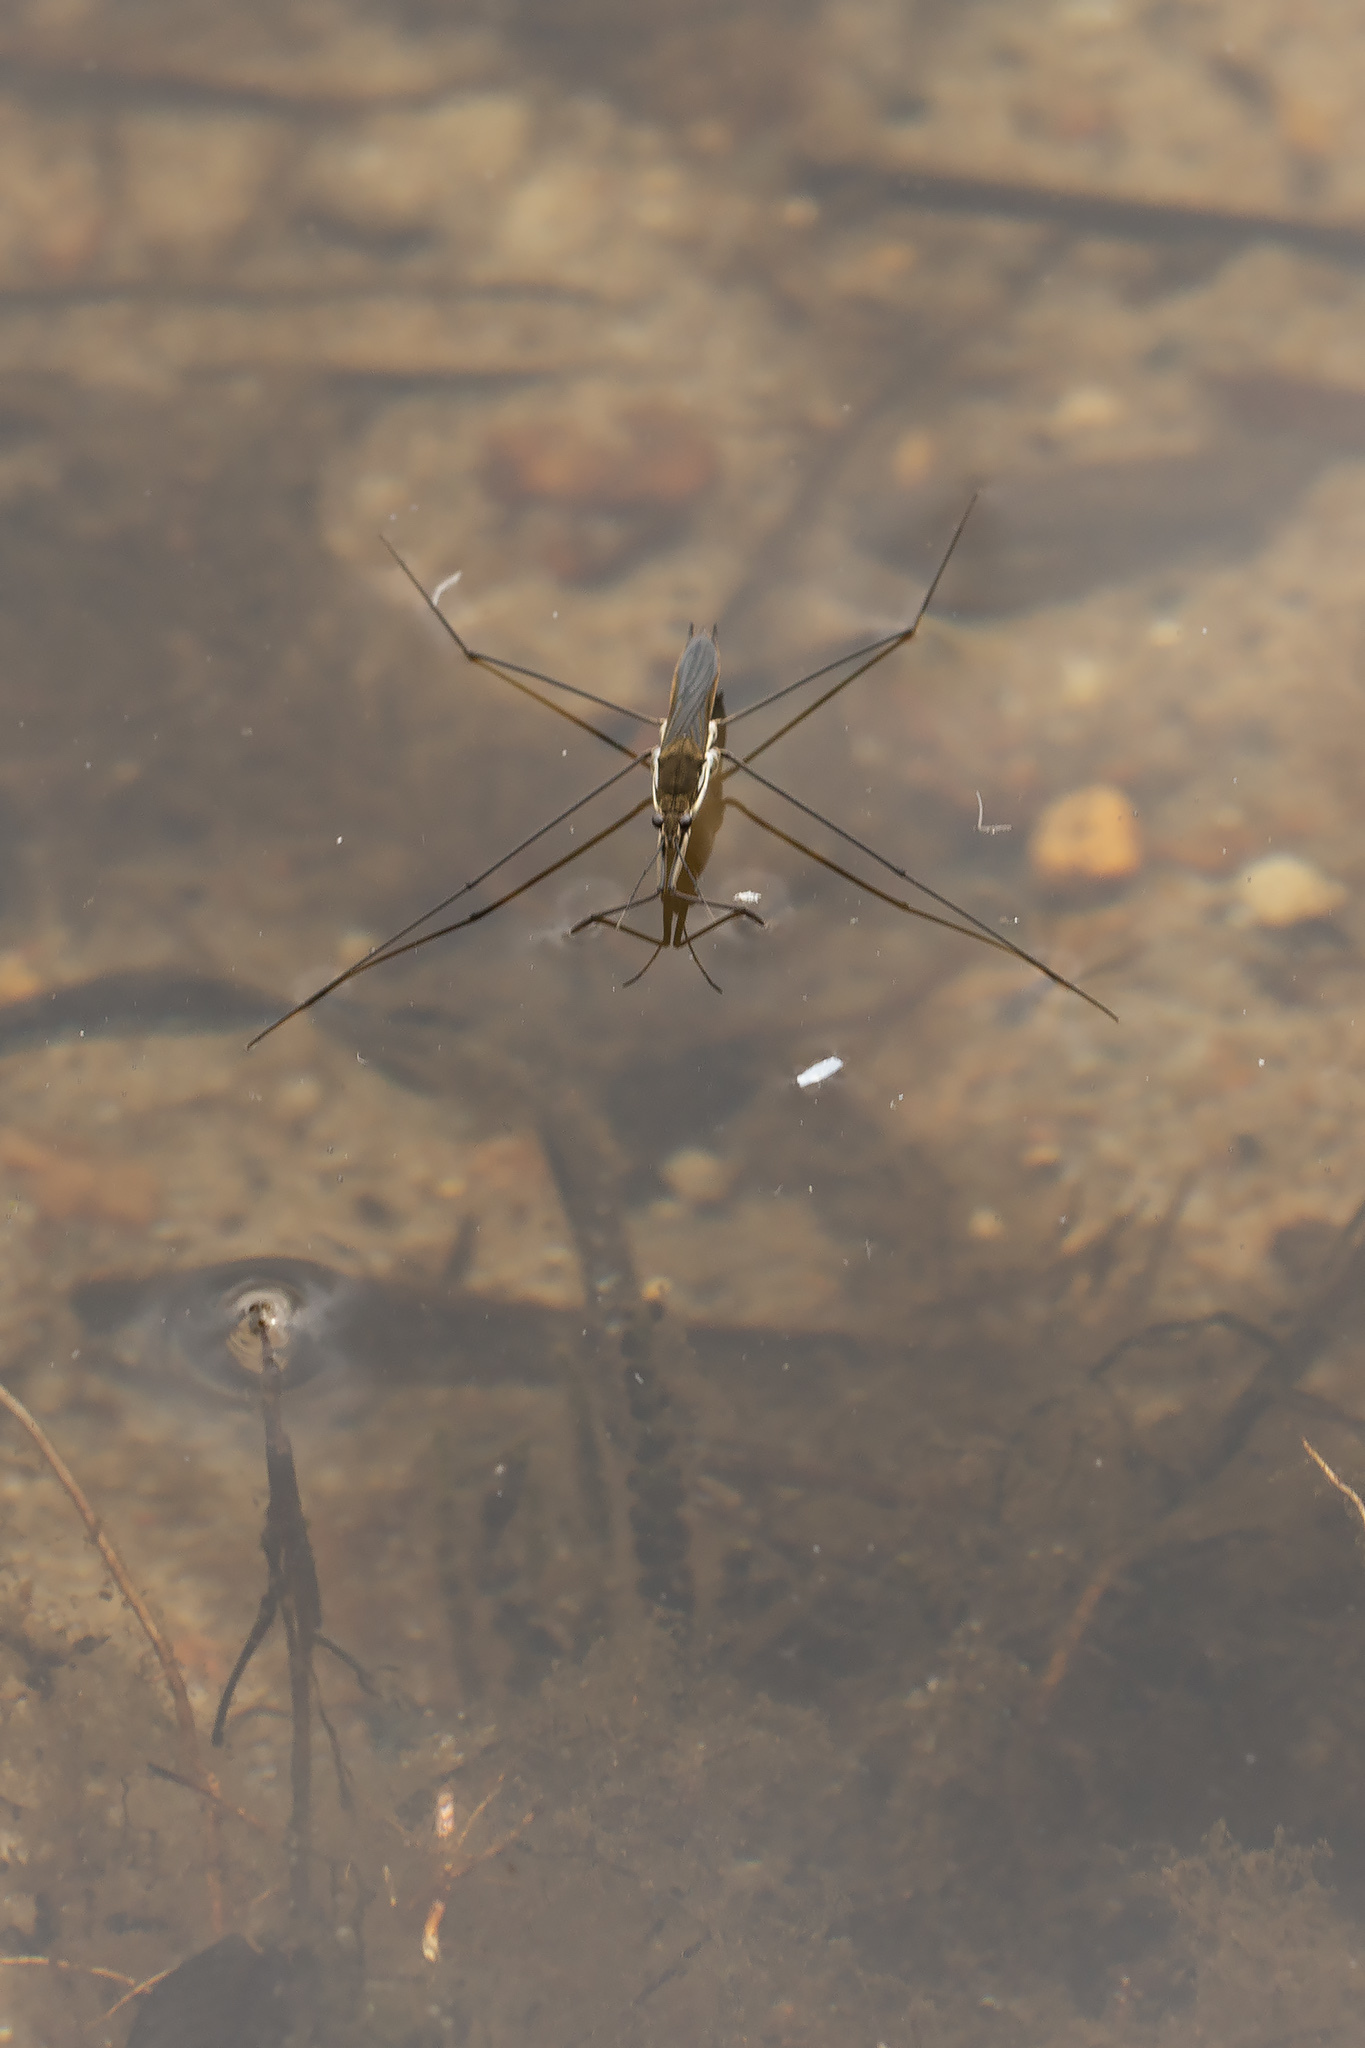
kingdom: Animalia
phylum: Arthropoda
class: Insecta
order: Hemiptera
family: Gerridae
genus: Aquarius
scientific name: Aquarius paludum
